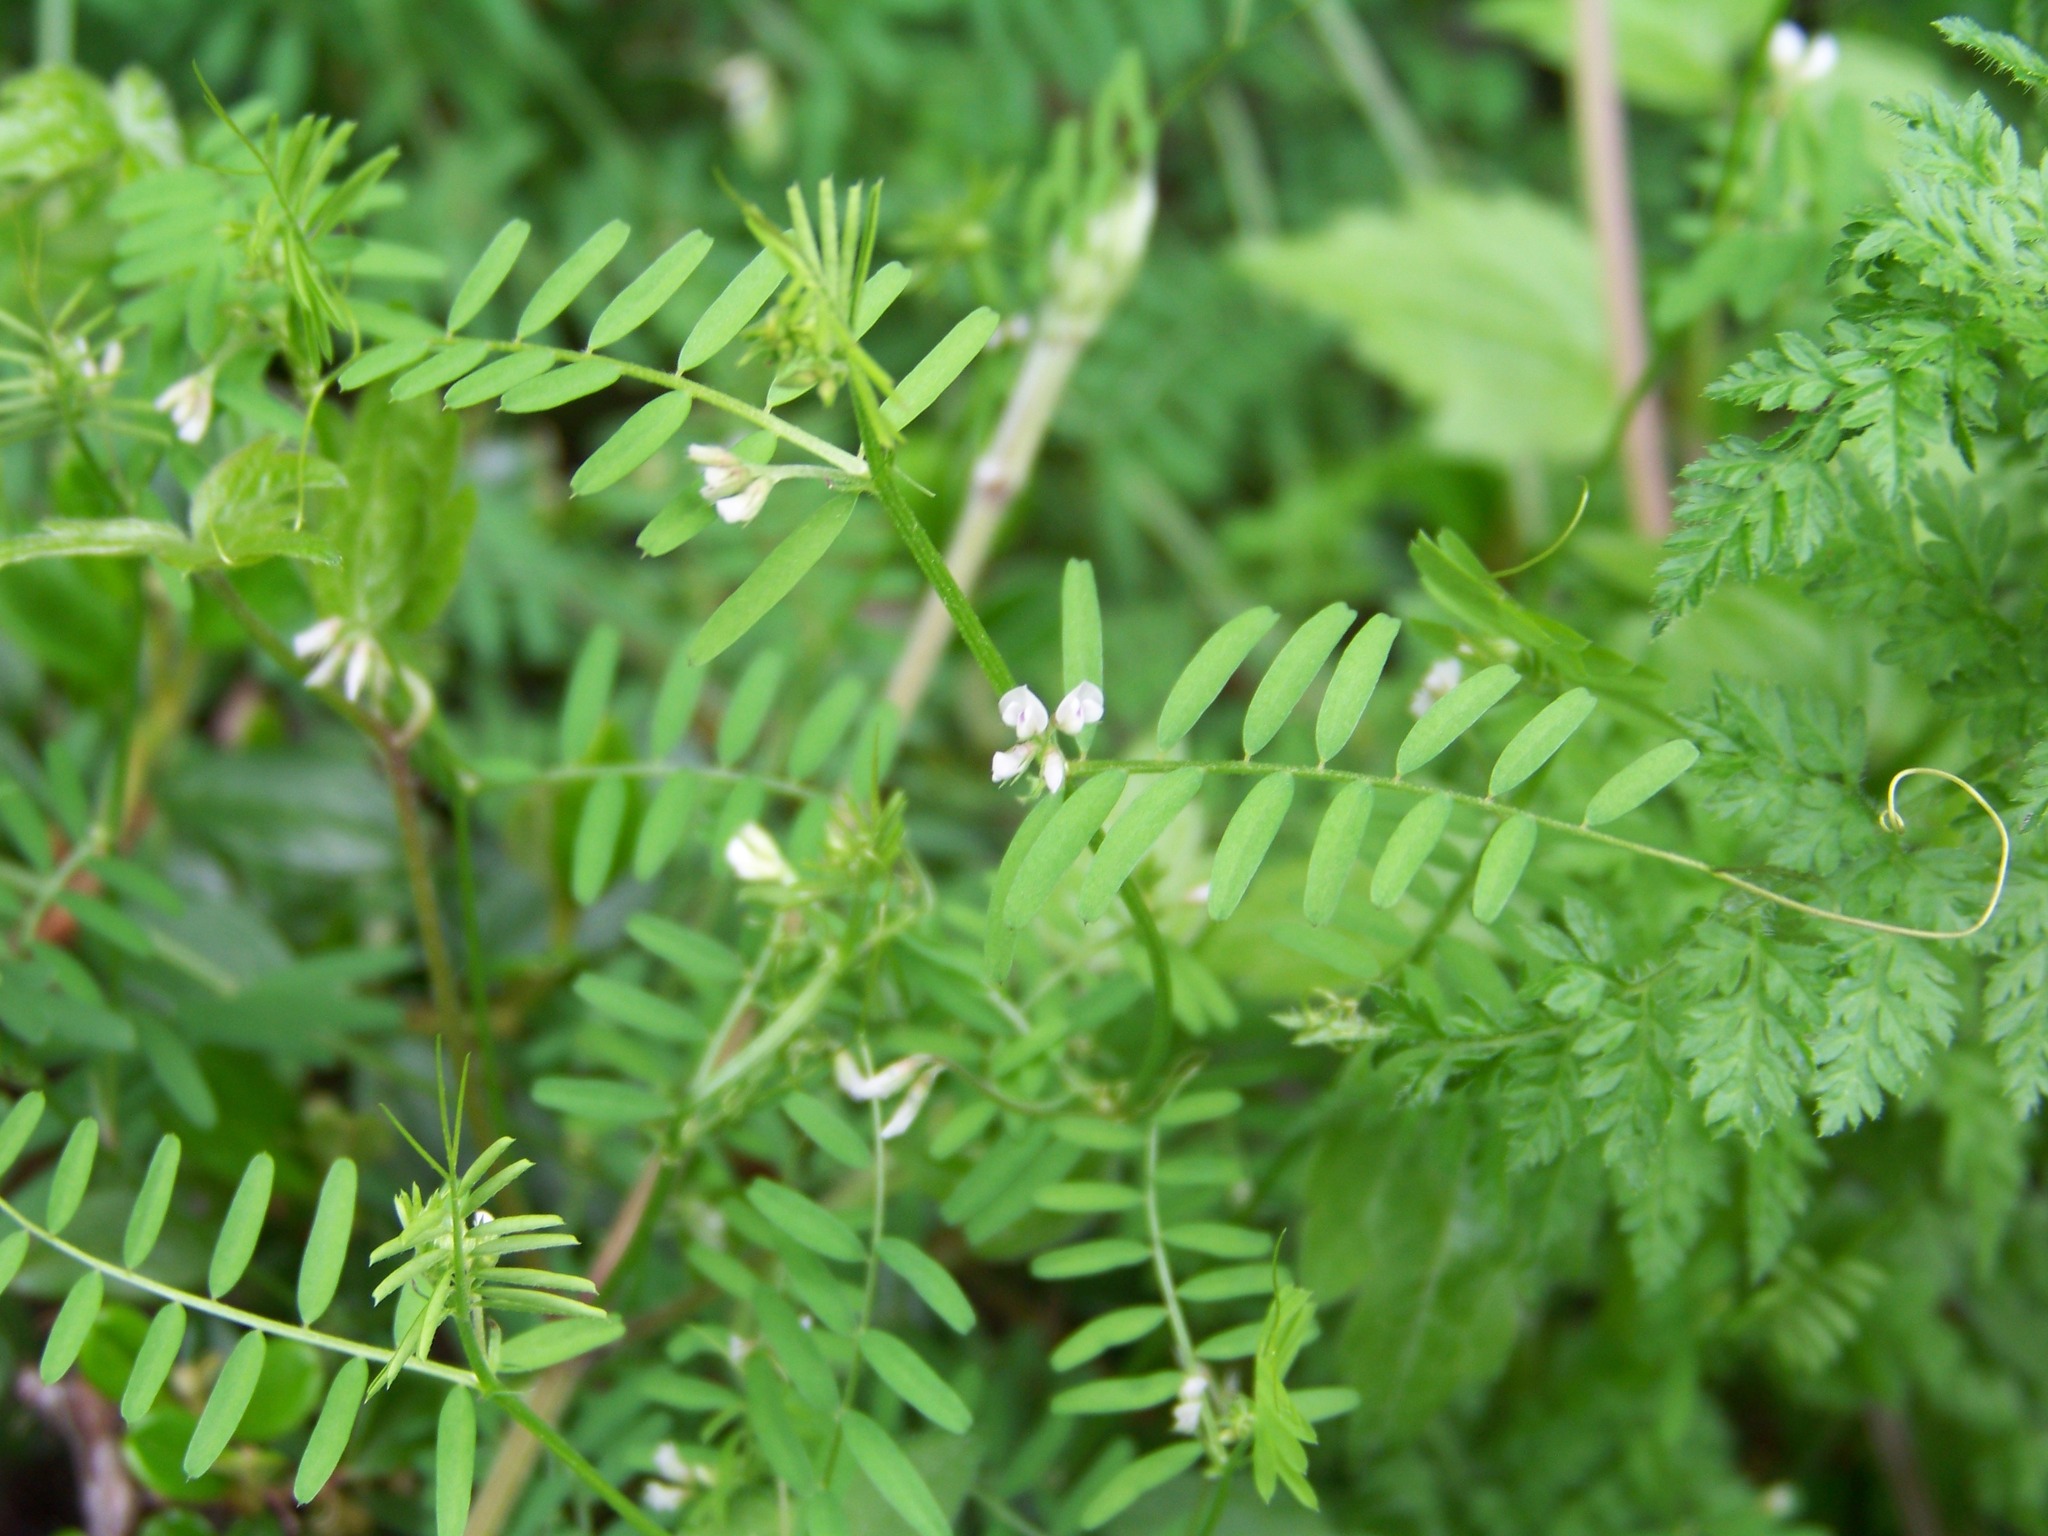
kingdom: Plantae
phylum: Tracheophyta
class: Magnoliopsida
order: Fabales
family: Fabaceae
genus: Vicia
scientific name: Vicia hirsuta
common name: Tiny vetch
